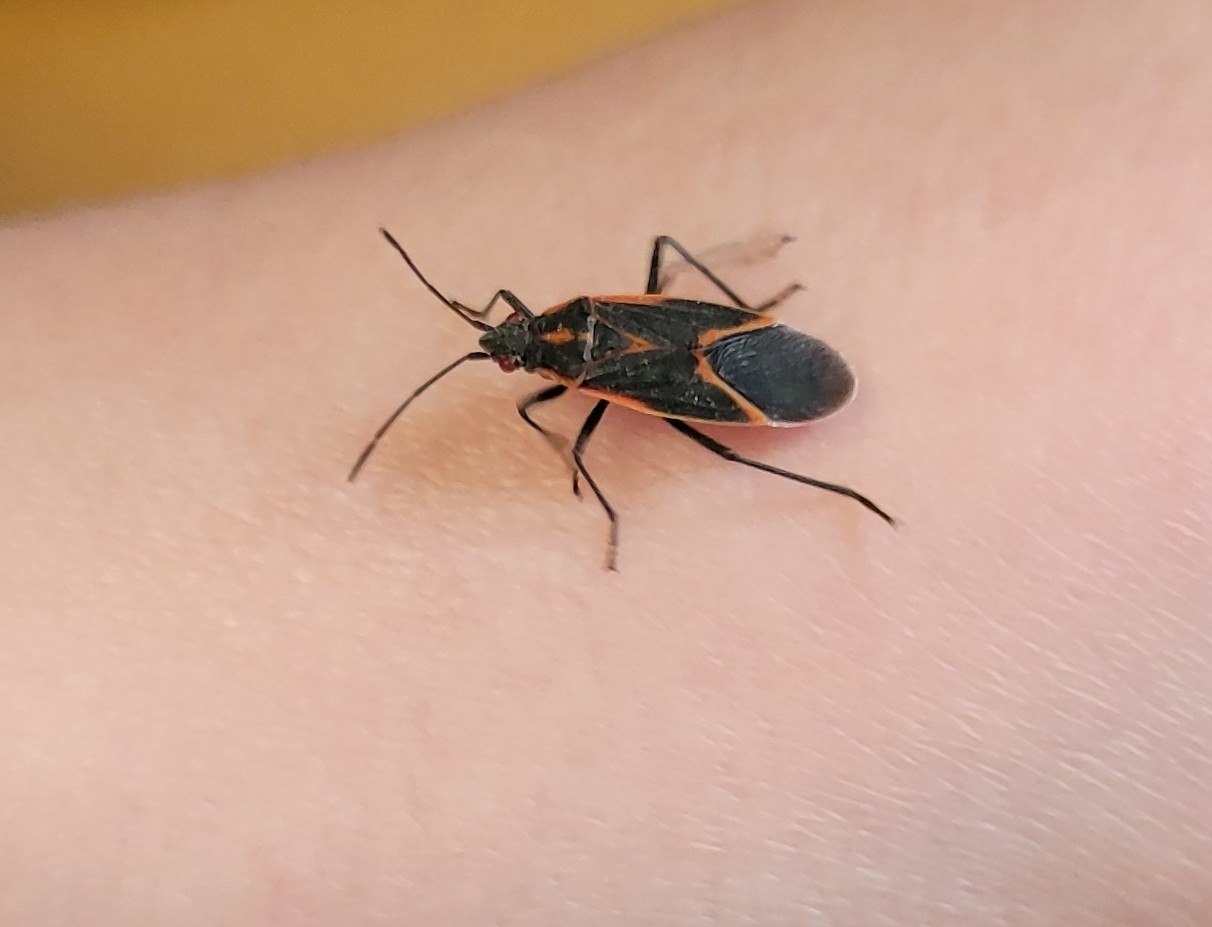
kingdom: Animalia
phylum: Arthropoda
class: Insecta
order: Hemiptera
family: Rhopalidae
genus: Boisea
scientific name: Boisea trivittata
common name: Boxelder bug
